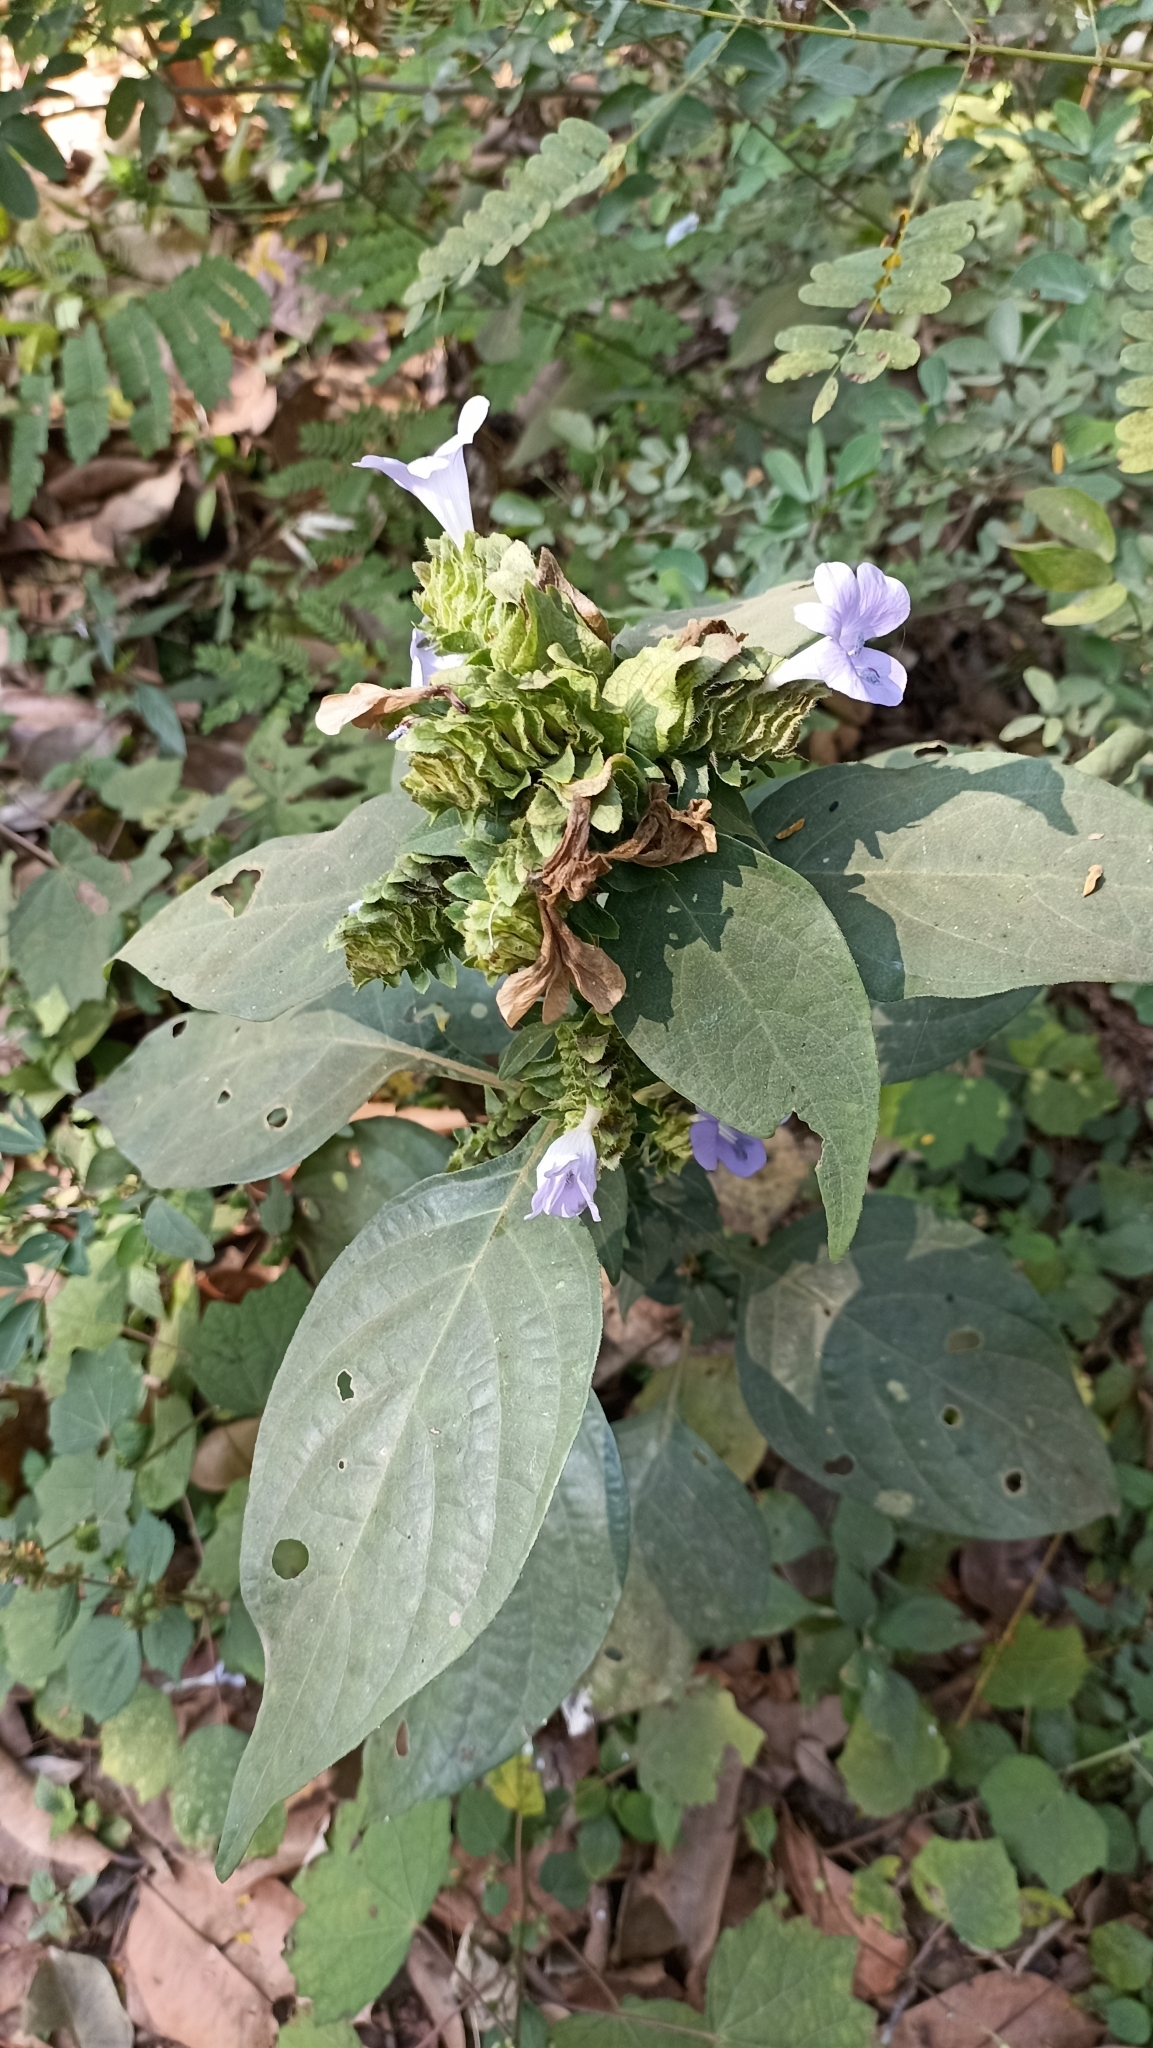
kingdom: Plantae
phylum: Tracheophyta
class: Magnoliopsida
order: Lamiales
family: Acanthaceae
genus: Barleria
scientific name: Barleria strigosa
